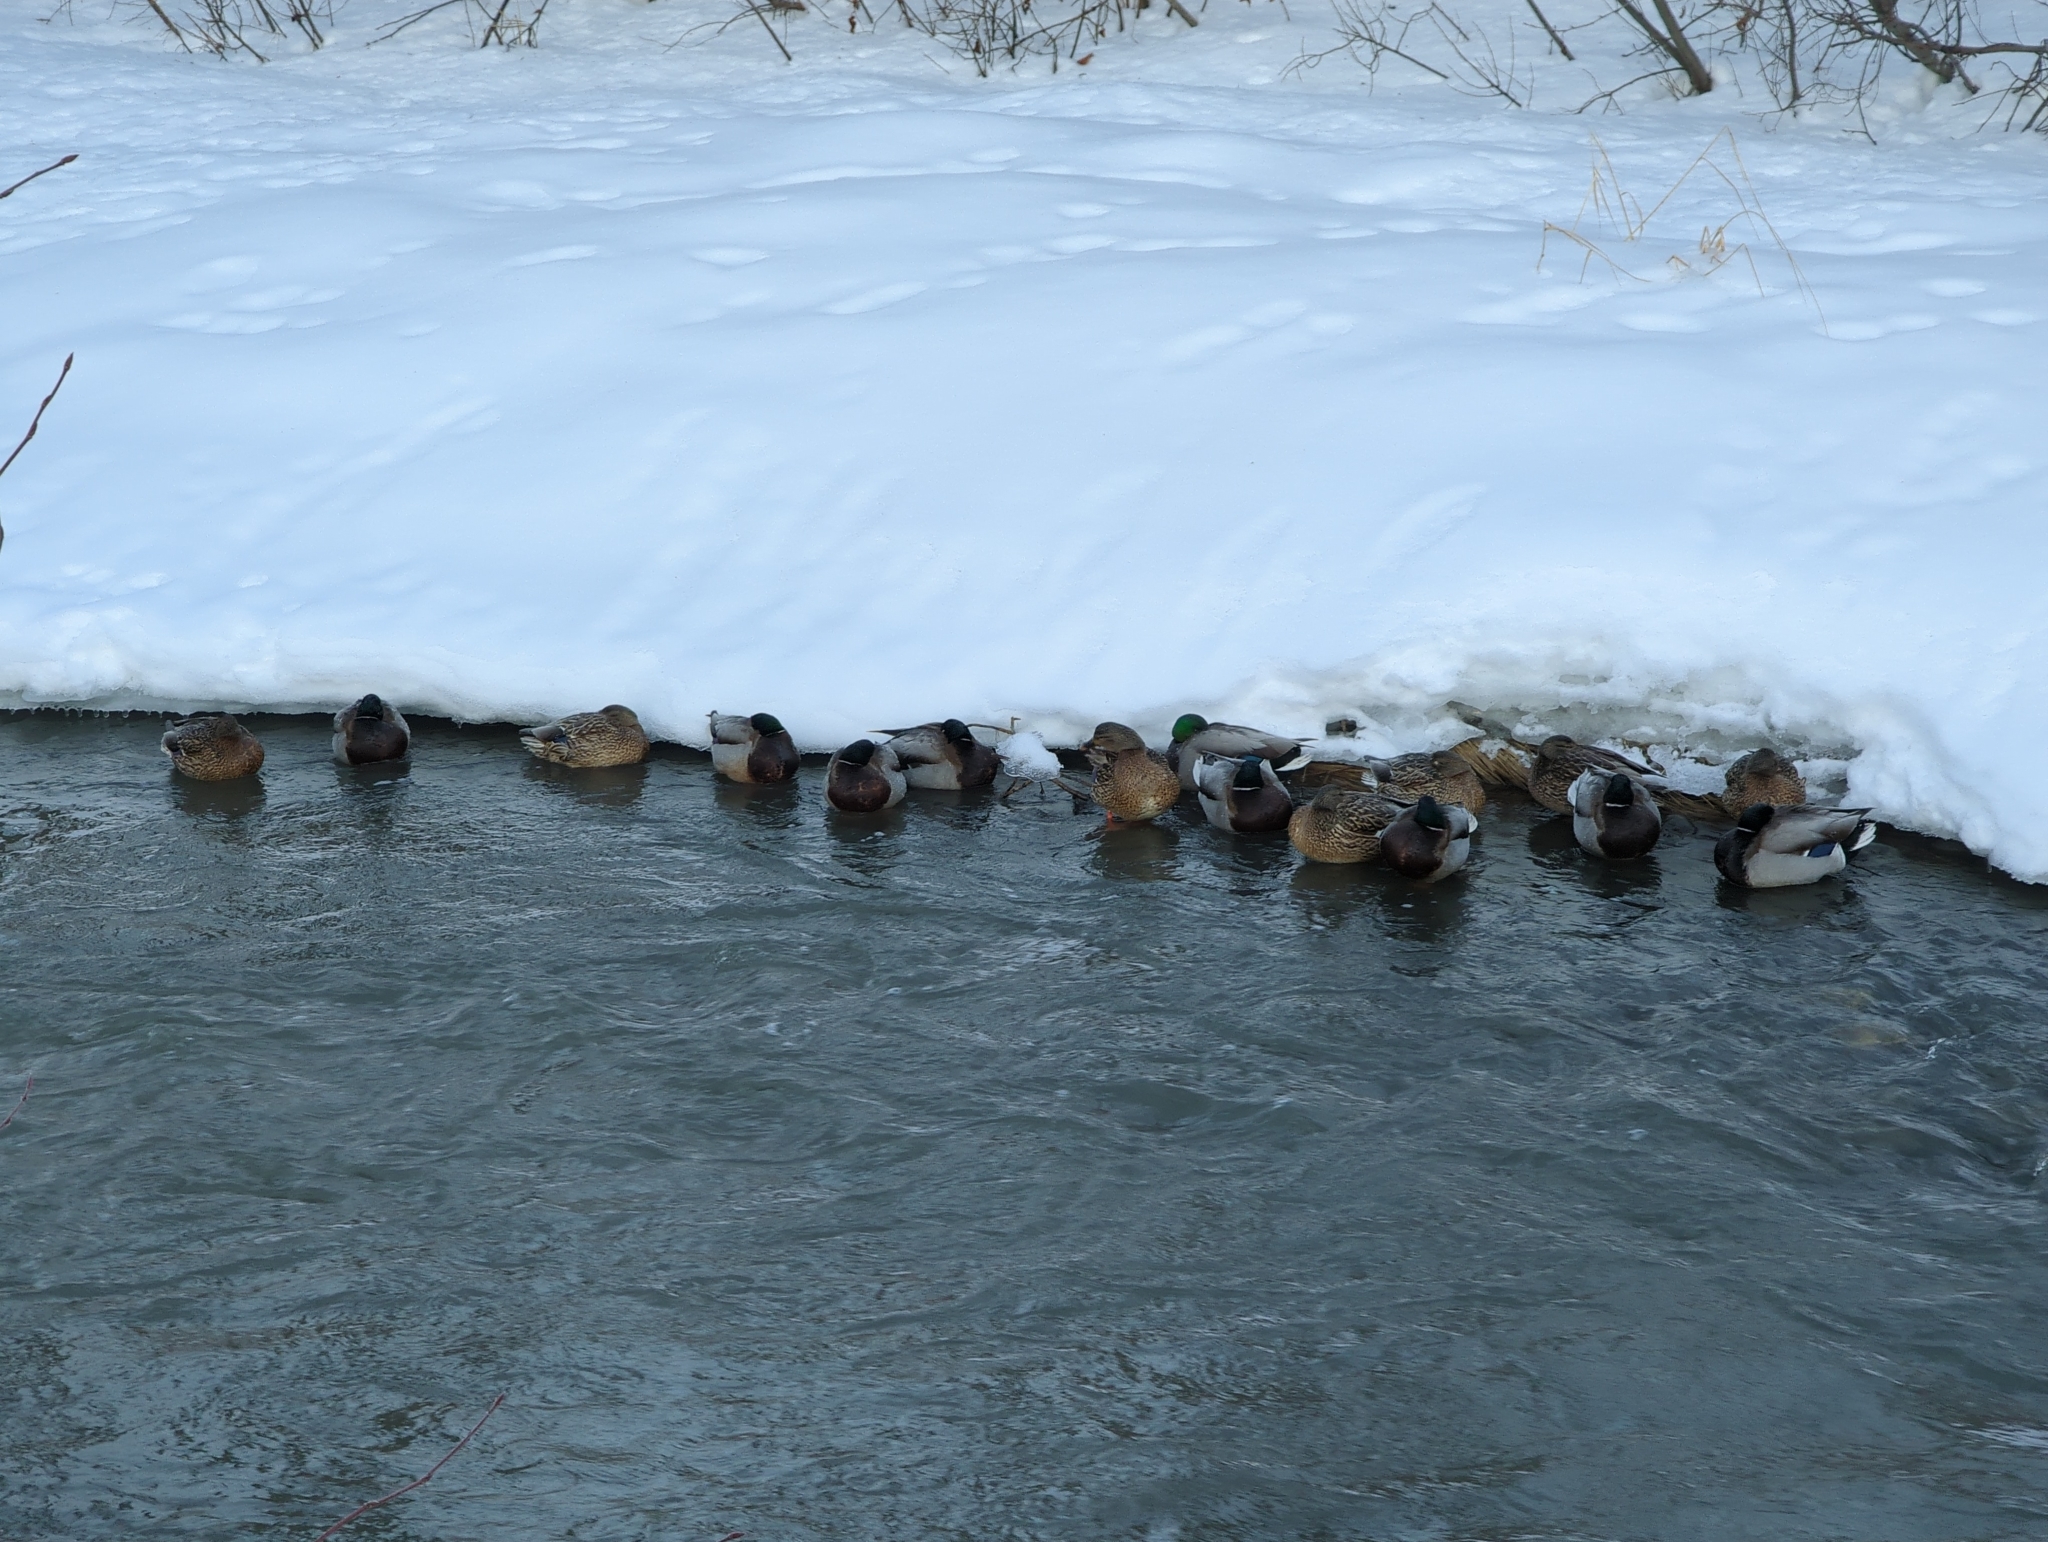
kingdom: Animalia
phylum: Chordata
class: Aves
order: Anseriformes
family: Anatidae
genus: Anas
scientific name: Anas platyrhynchos
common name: Mallard
